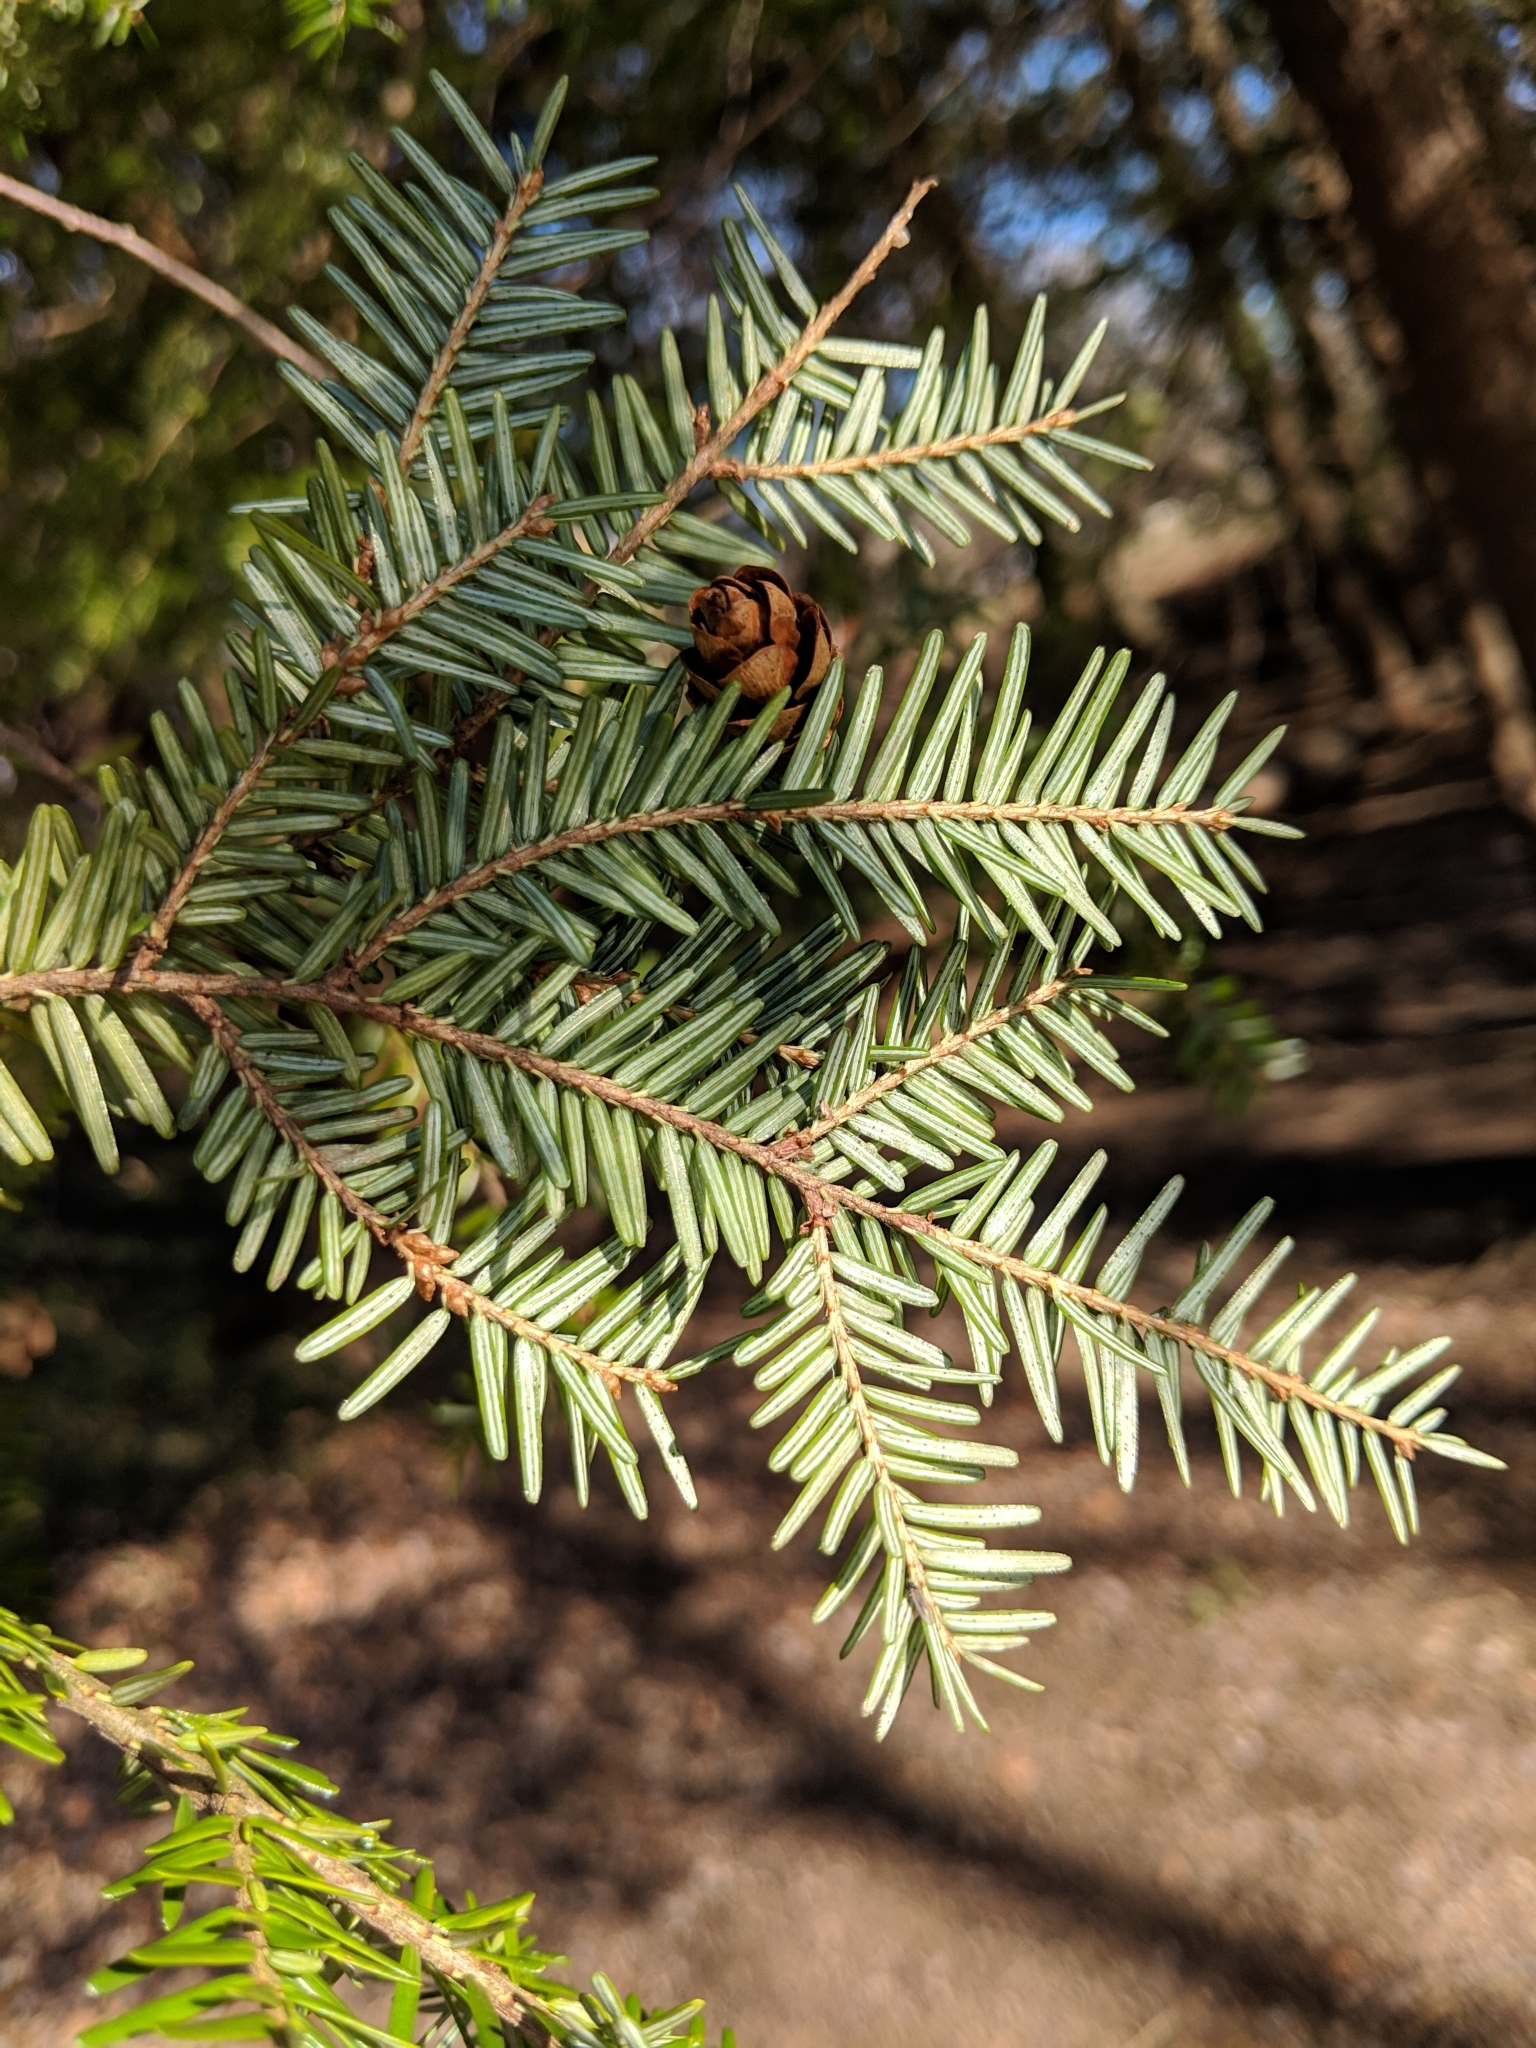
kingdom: Plantae
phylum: Tracheophyta
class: Pinopsida
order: Pinales
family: Pinaceae
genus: Tsuga
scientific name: Tsuga canadensis
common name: Eastern hemlock
